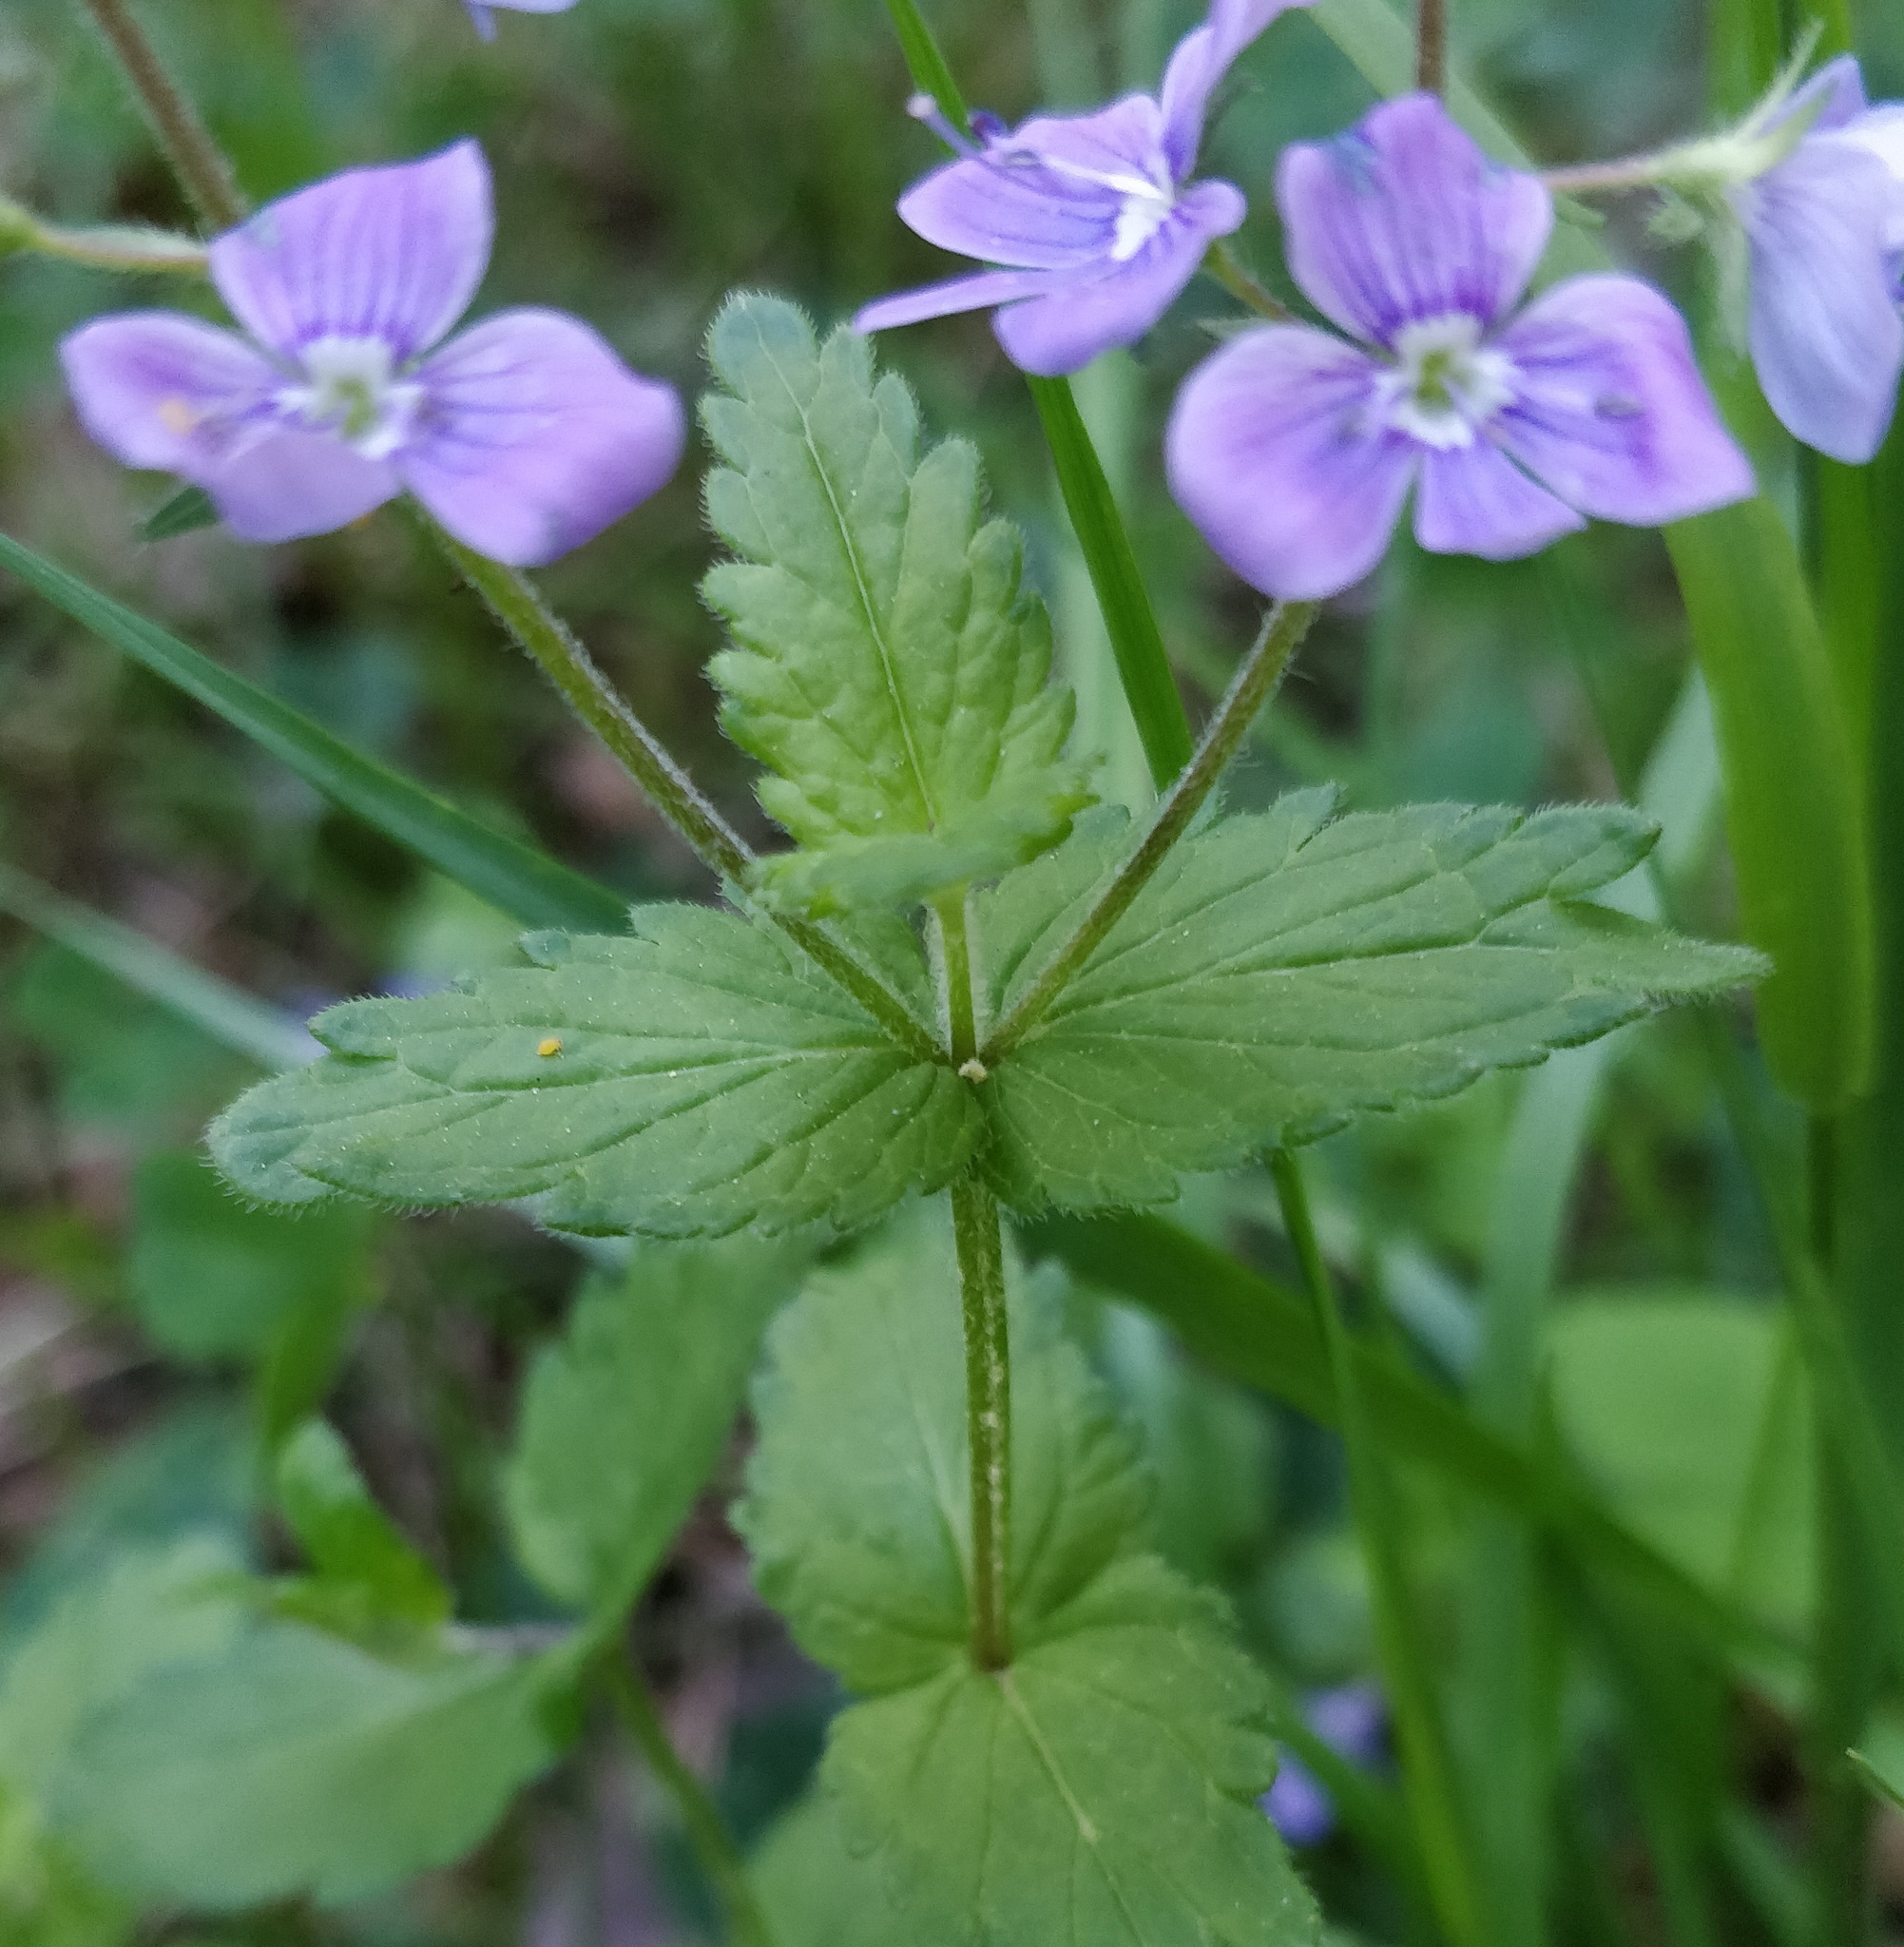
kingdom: Plantae
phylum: Tracheophyta
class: Magnoliopsida
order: Lamiales
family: Plantaginaceae
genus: Veronica
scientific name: Veronica chamaedrys
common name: Germander speedwell
